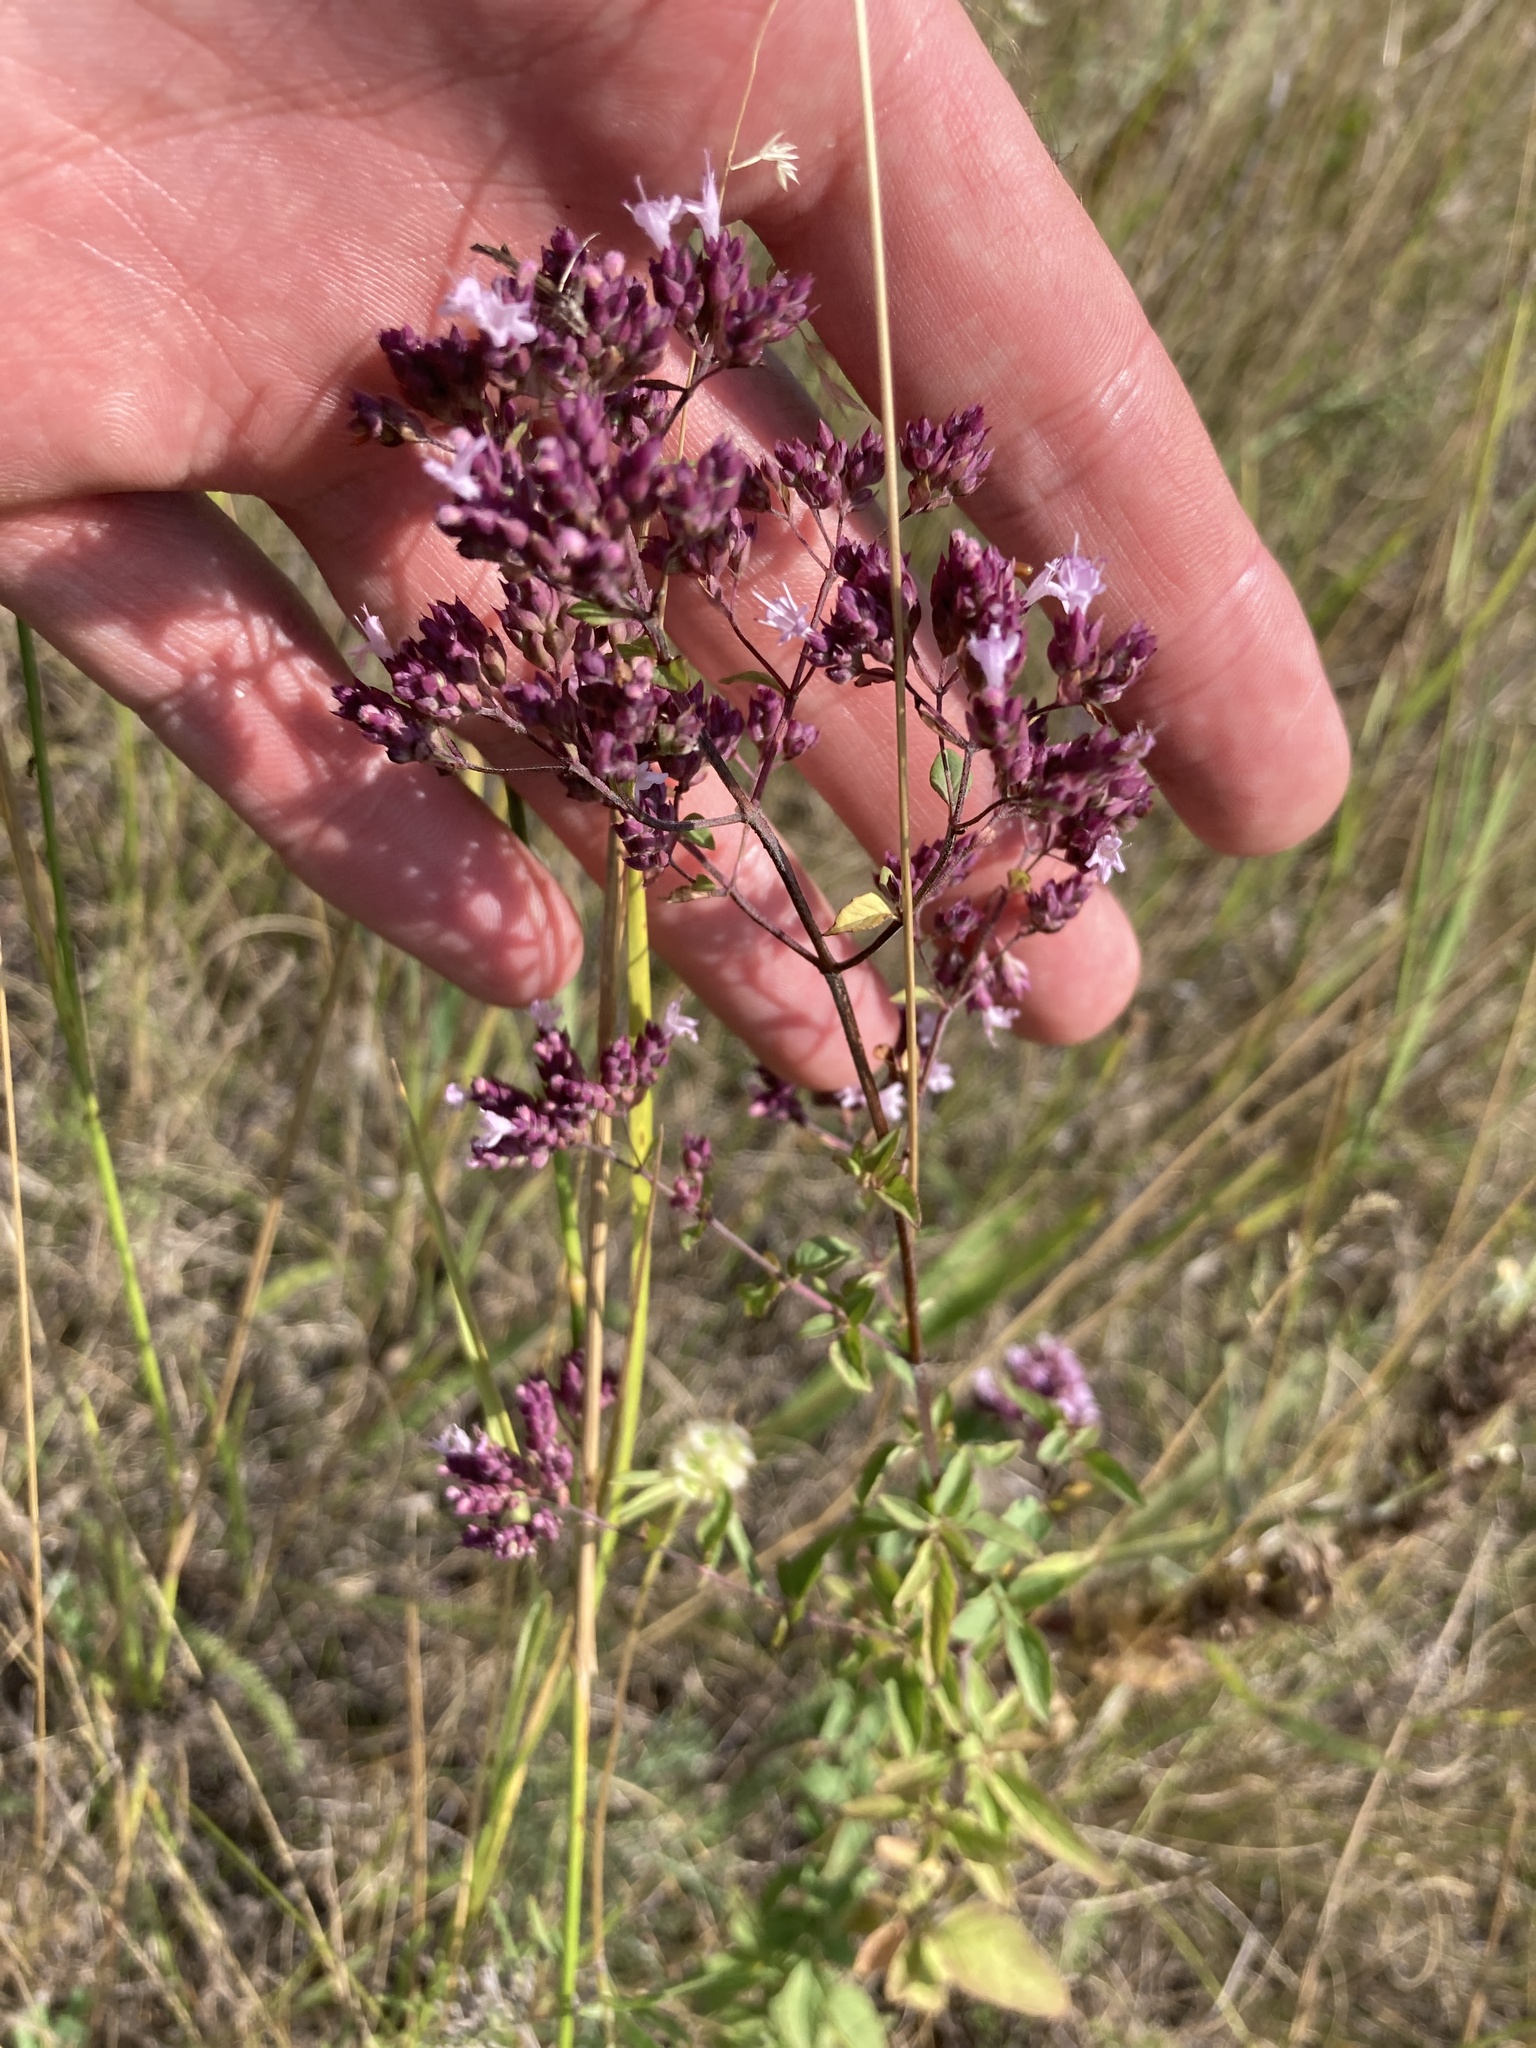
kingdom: Plantae
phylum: Tracheophyta
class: Magnoliopsida
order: Lamiales
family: Lamiaceae
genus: Origanum
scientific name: Origanum vulgare
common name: Wild marjoram
